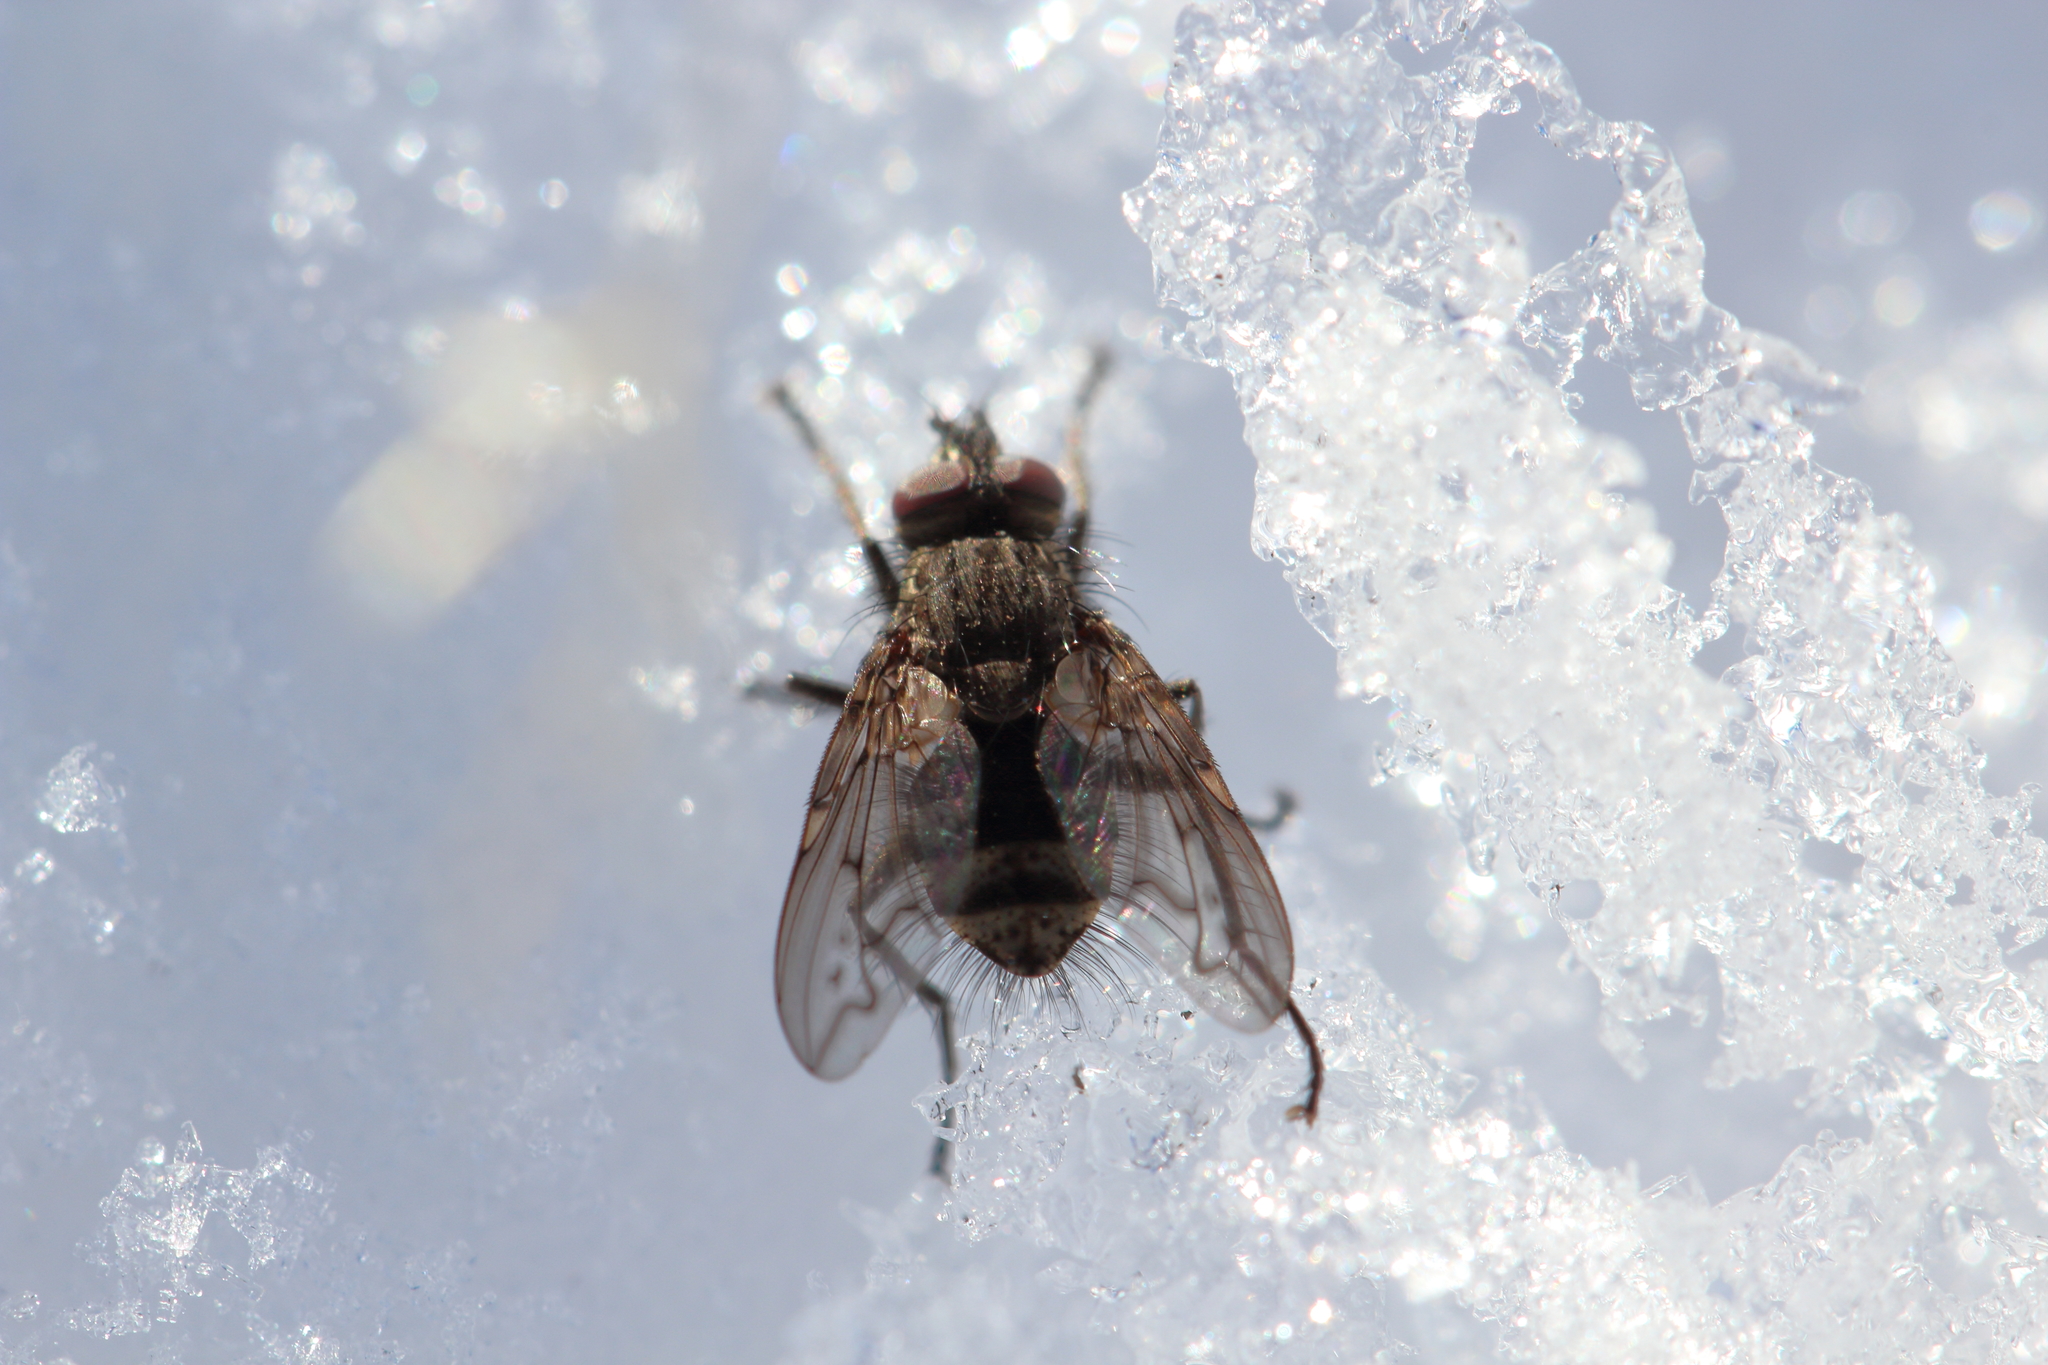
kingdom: Animalia
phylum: Arthropoda
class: Insecta
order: Diptera
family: Tachinidae
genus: Mallochomacquartia
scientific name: Mallochomacquartia vexata
